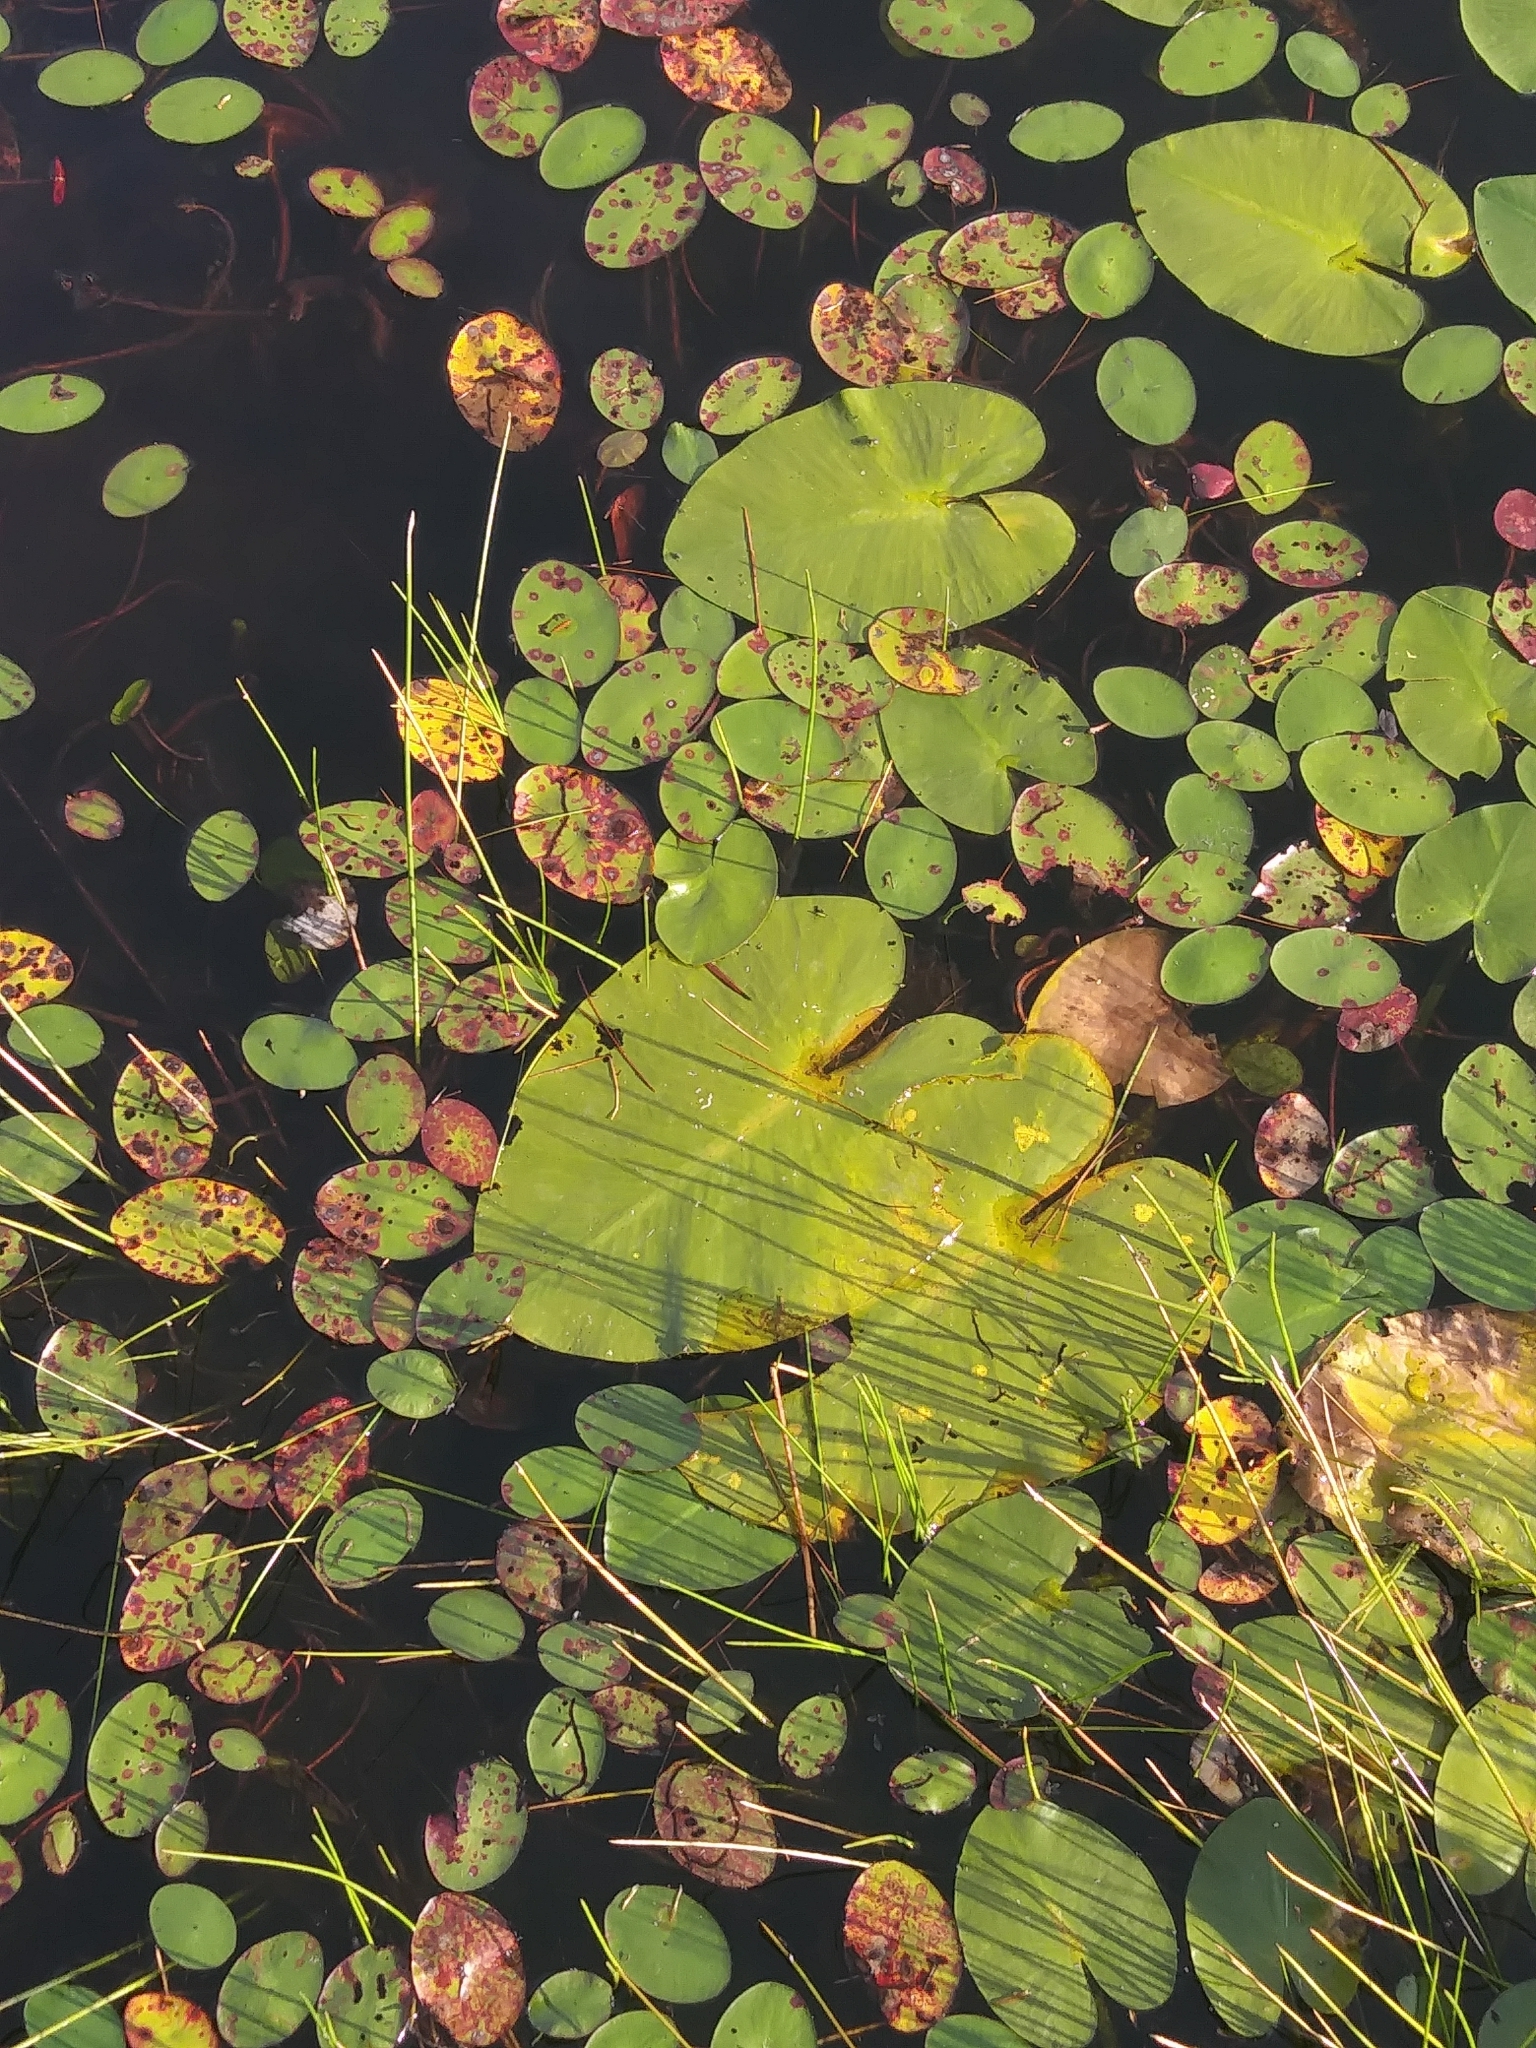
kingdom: Plantae
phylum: Tracheophyta
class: Magnoliopsida
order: Nymphaeales
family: Nymphaeaceae
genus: Nymphaea
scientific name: Nymphaea odorata
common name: Fragrant water-lily
